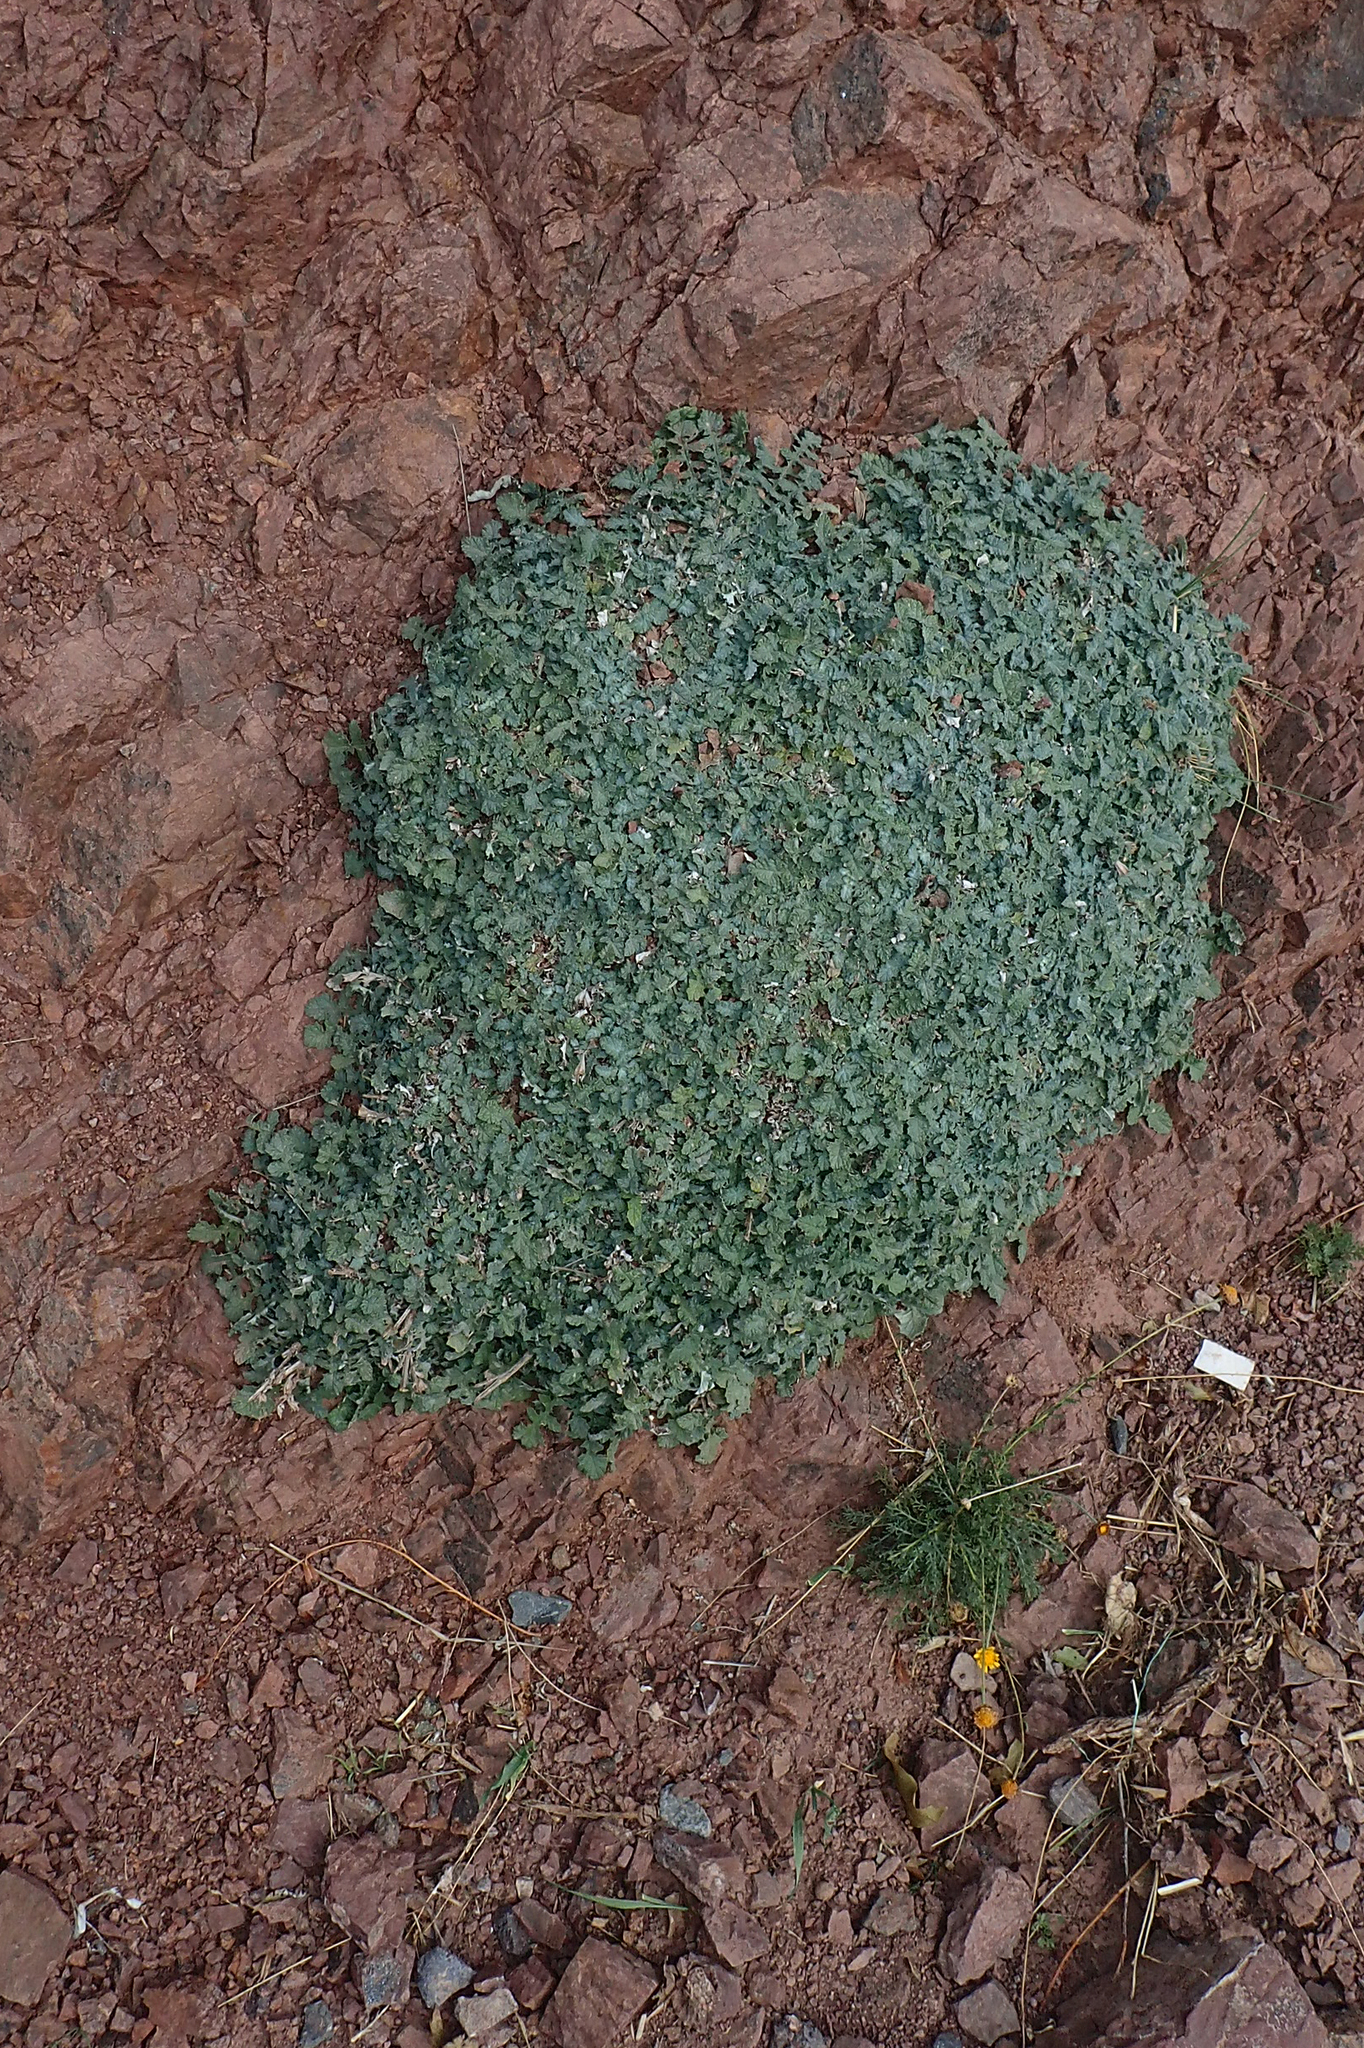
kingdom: Plantae
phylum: Tracheophyta
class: Magnoliopsida
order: Lamiales
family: Lamiaceae
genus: Salvia
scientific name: Salvia taraxacifolia
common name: Wild sage
